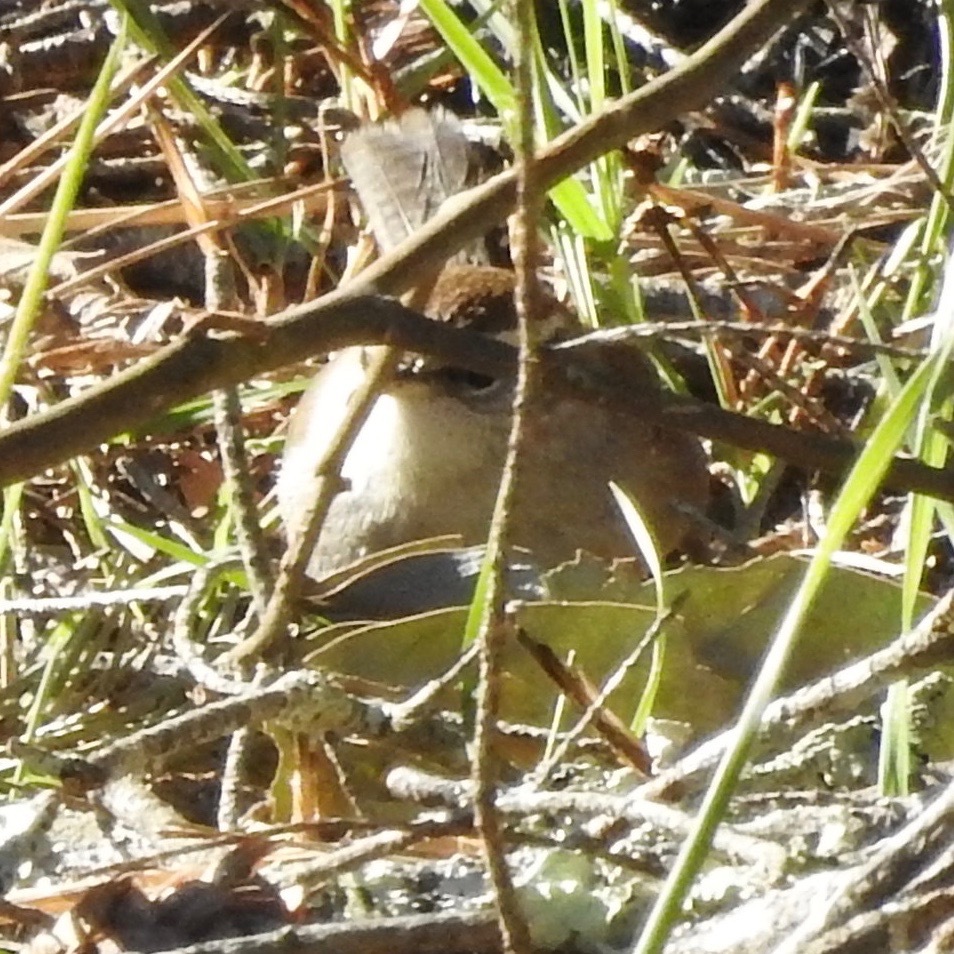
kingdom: Animalia
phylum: Chordata
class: Aves
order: Passeriformes
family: Troglodytidae
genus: Thryomanes
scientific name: Thryomanes bewickii
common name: Bewick's wren
